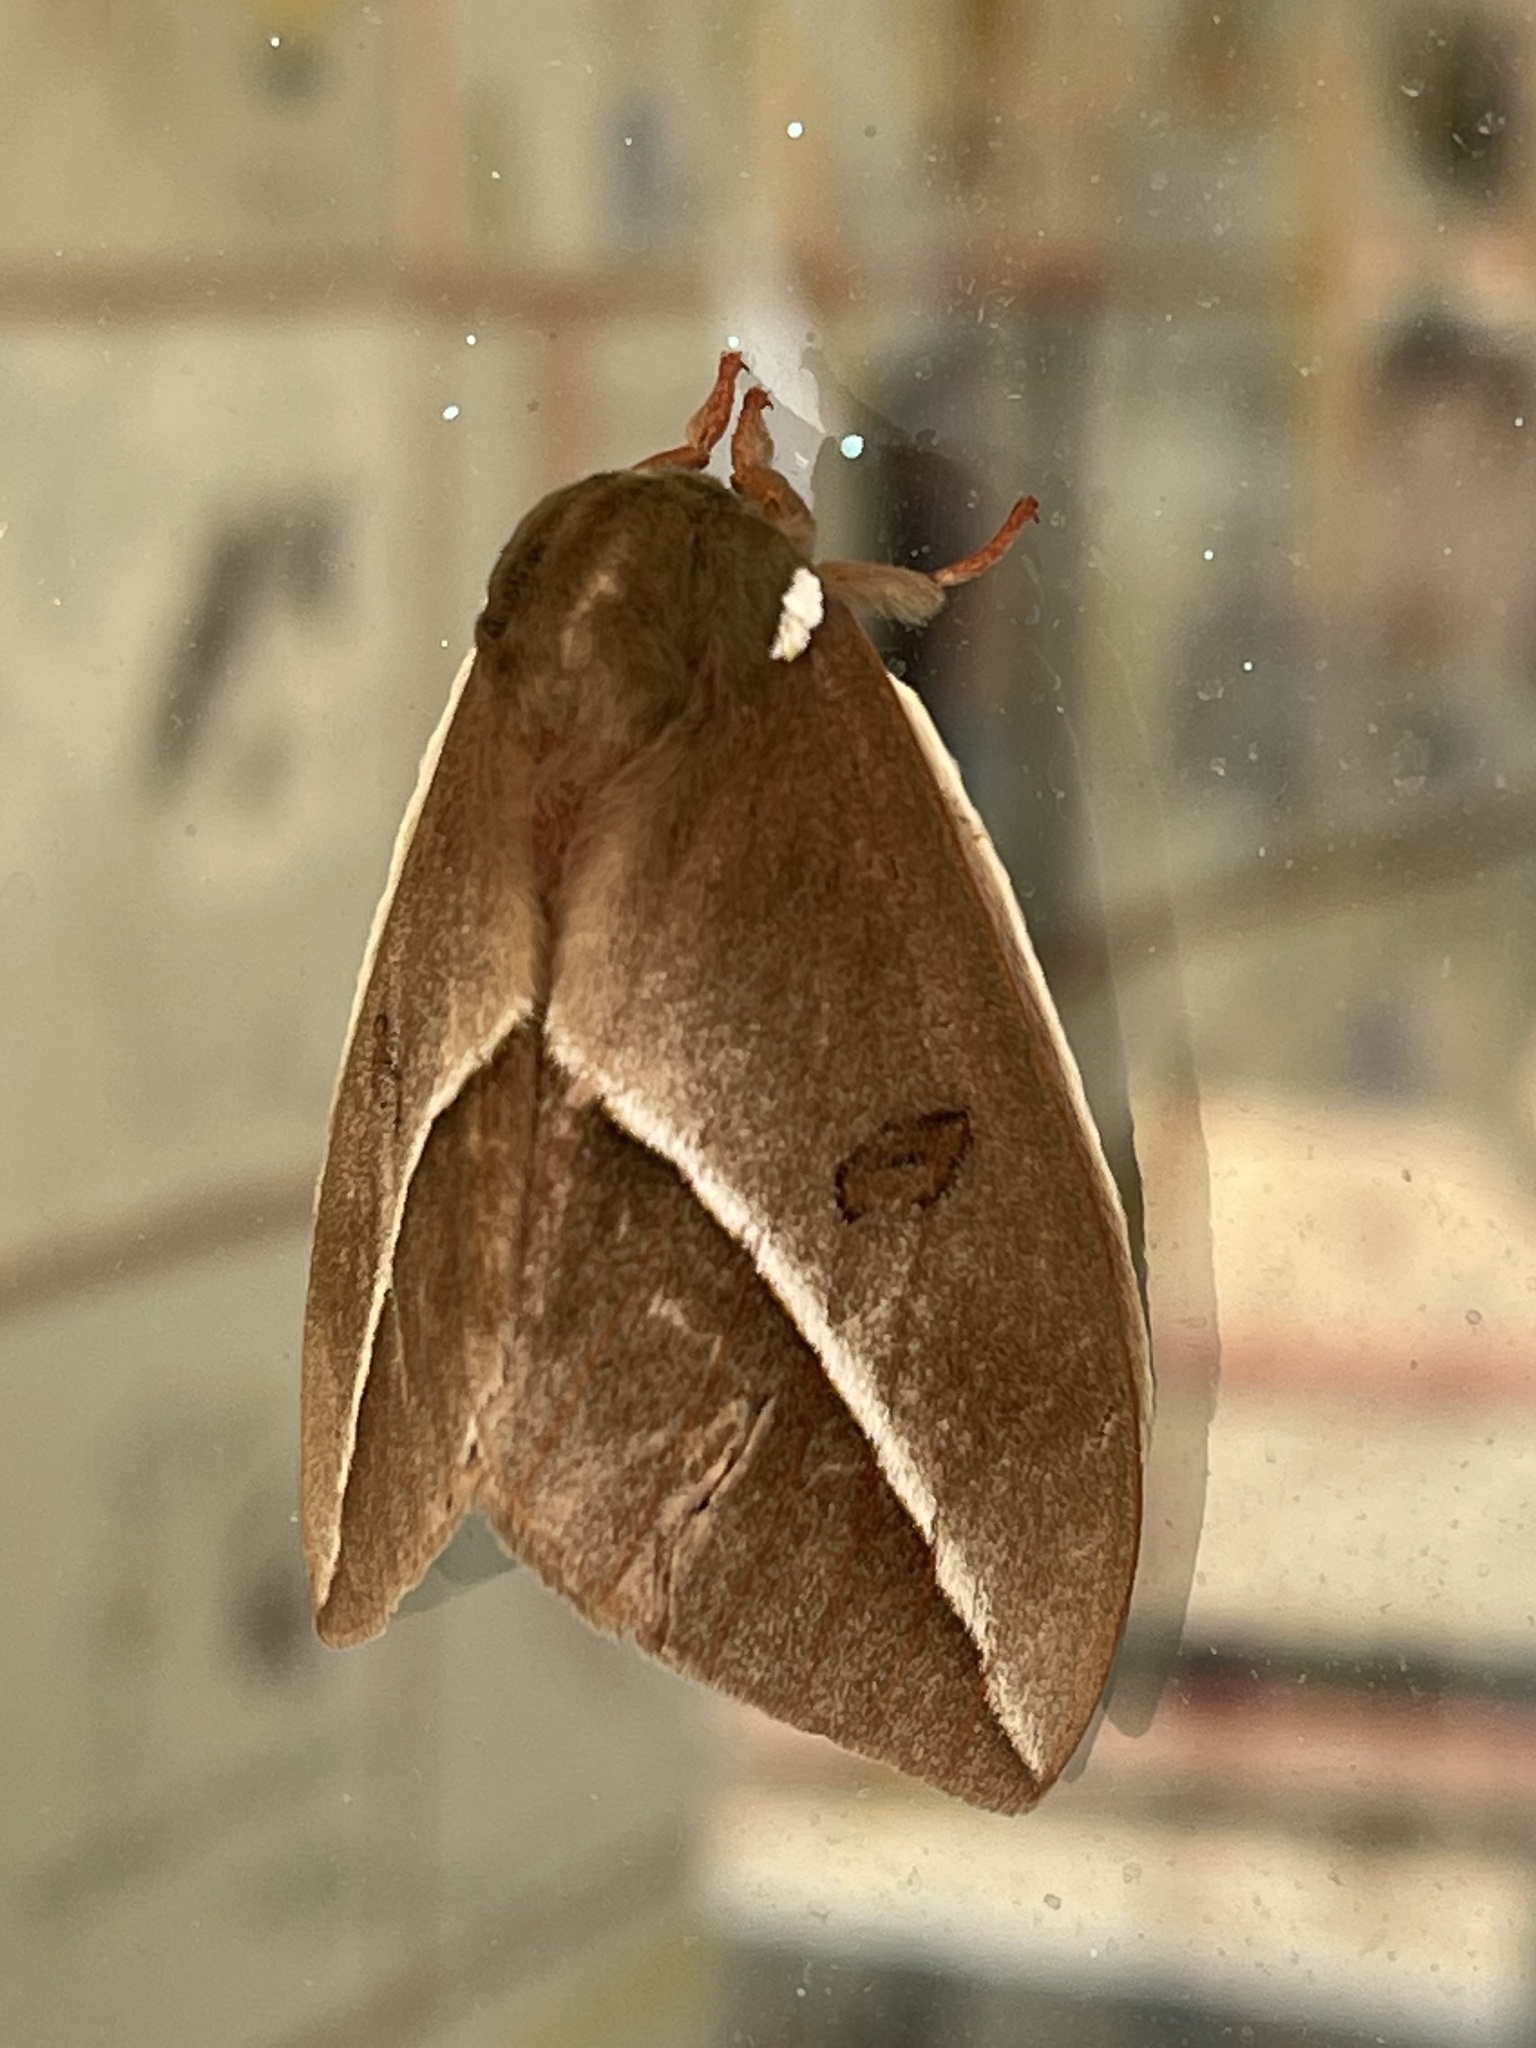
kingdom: Animalia
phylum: Arthropoda
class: Insecta
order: Lepidoptera
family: Saturniidae
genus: Automeris
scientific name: Automeris zephyria
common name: Zephyr eyed silkmoth
